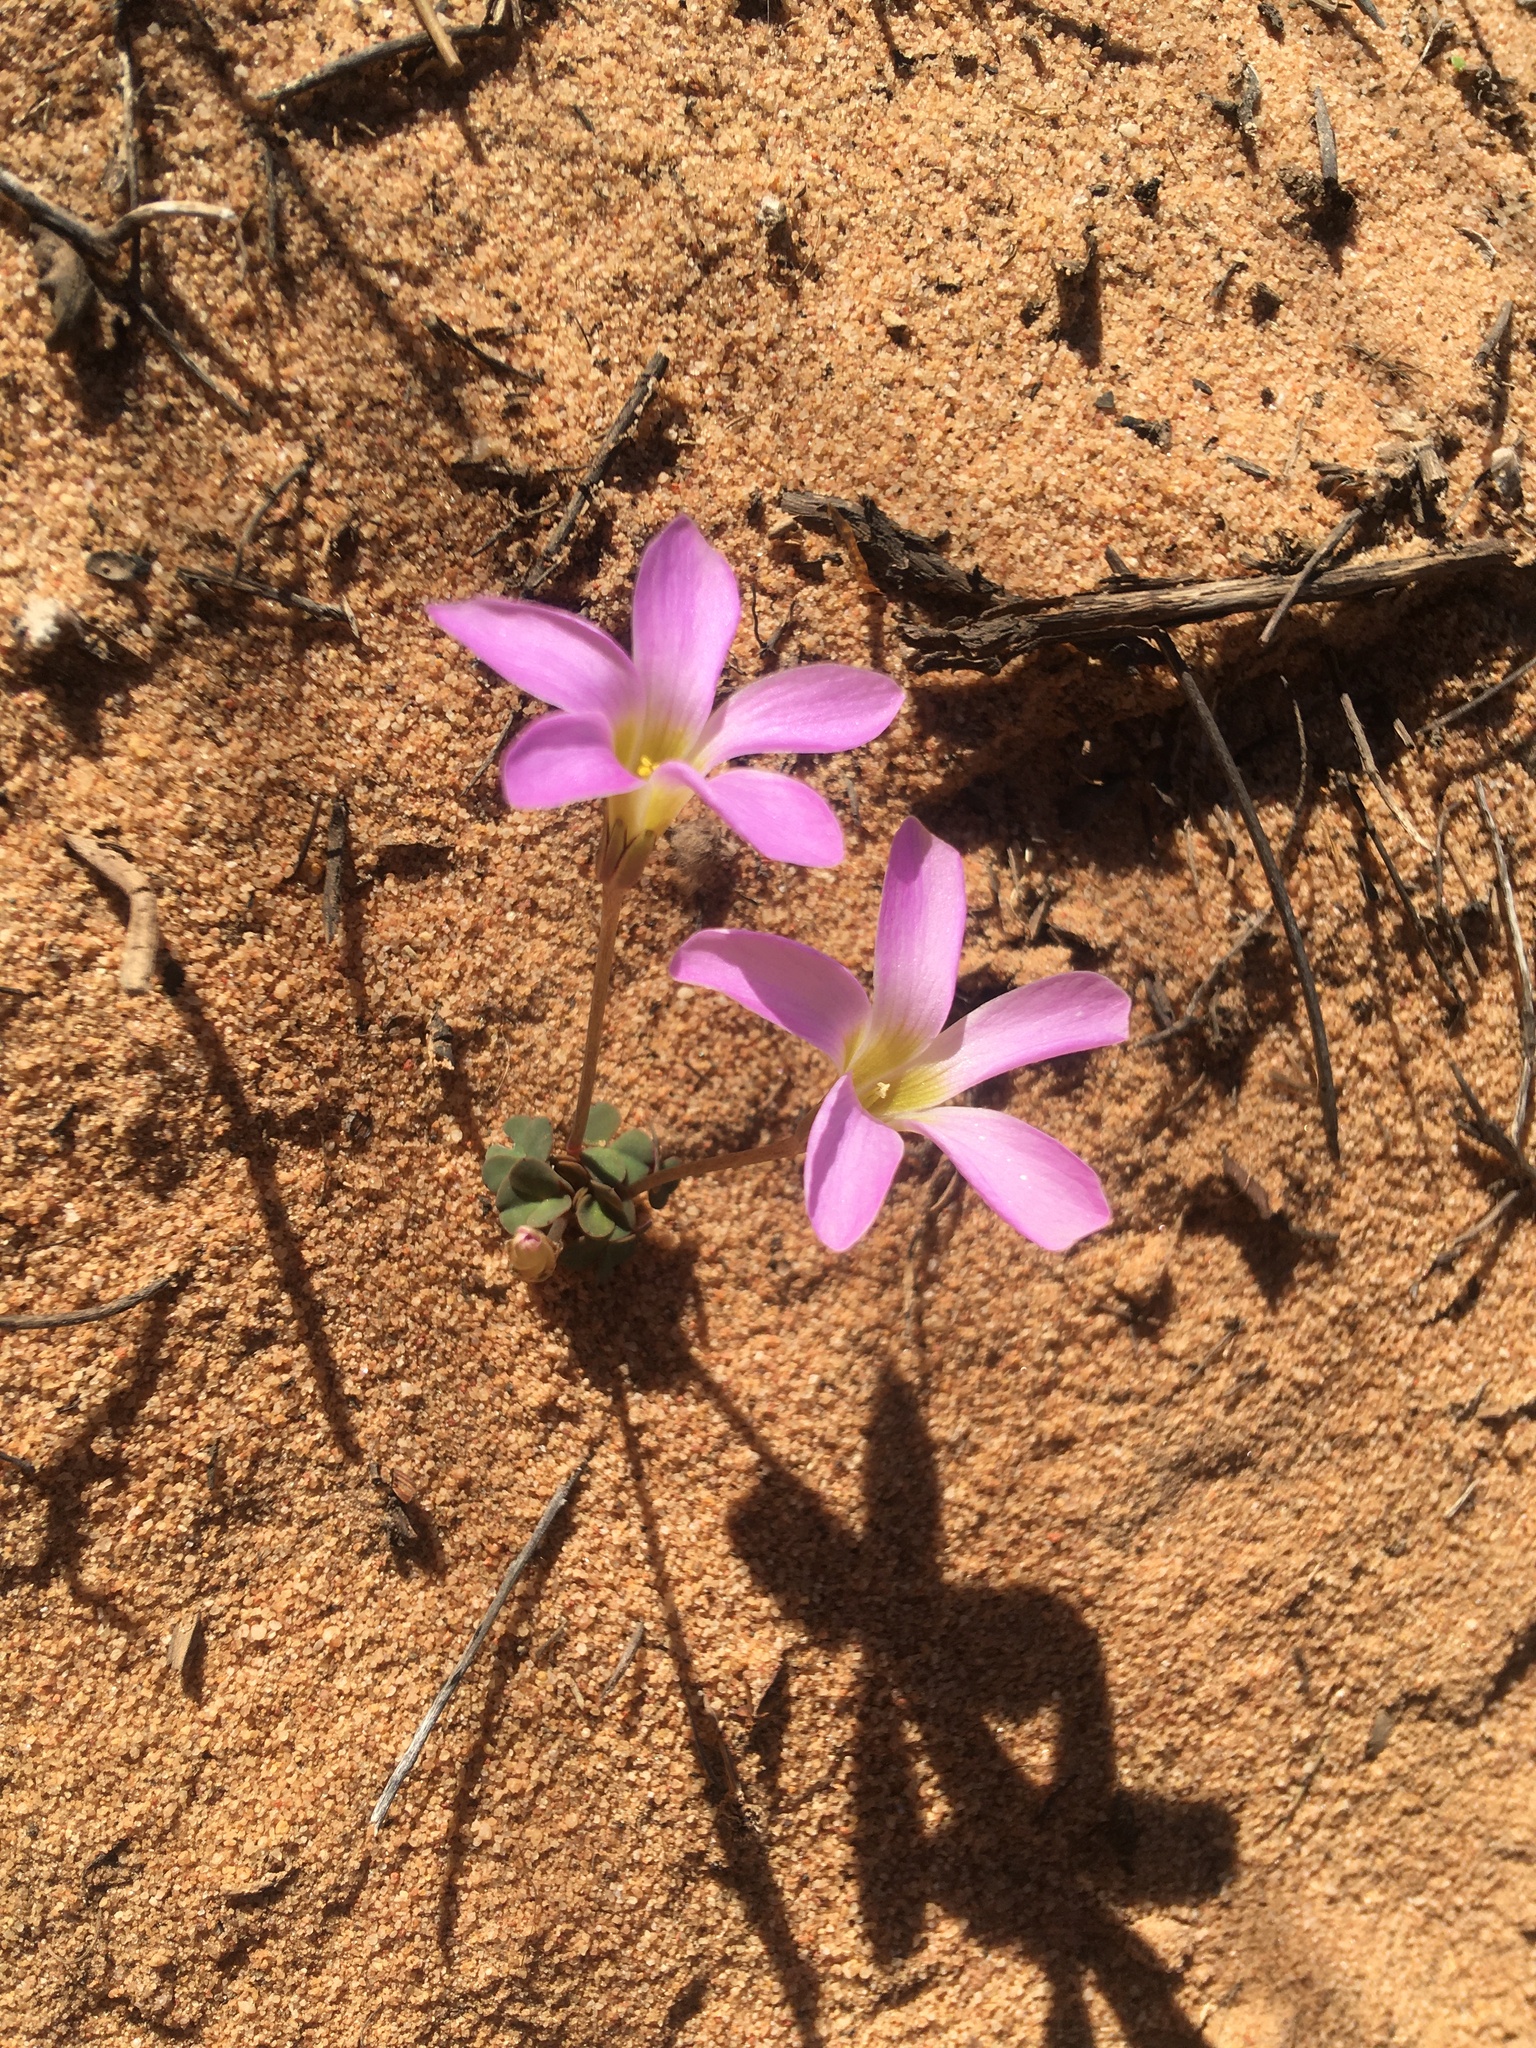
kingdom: Plantae
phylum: Tracheophyta
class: Magnoliopsida
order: Oxalidales
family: Oxalidaceae
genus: Oxalis
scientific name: Oxalis pocockiae
